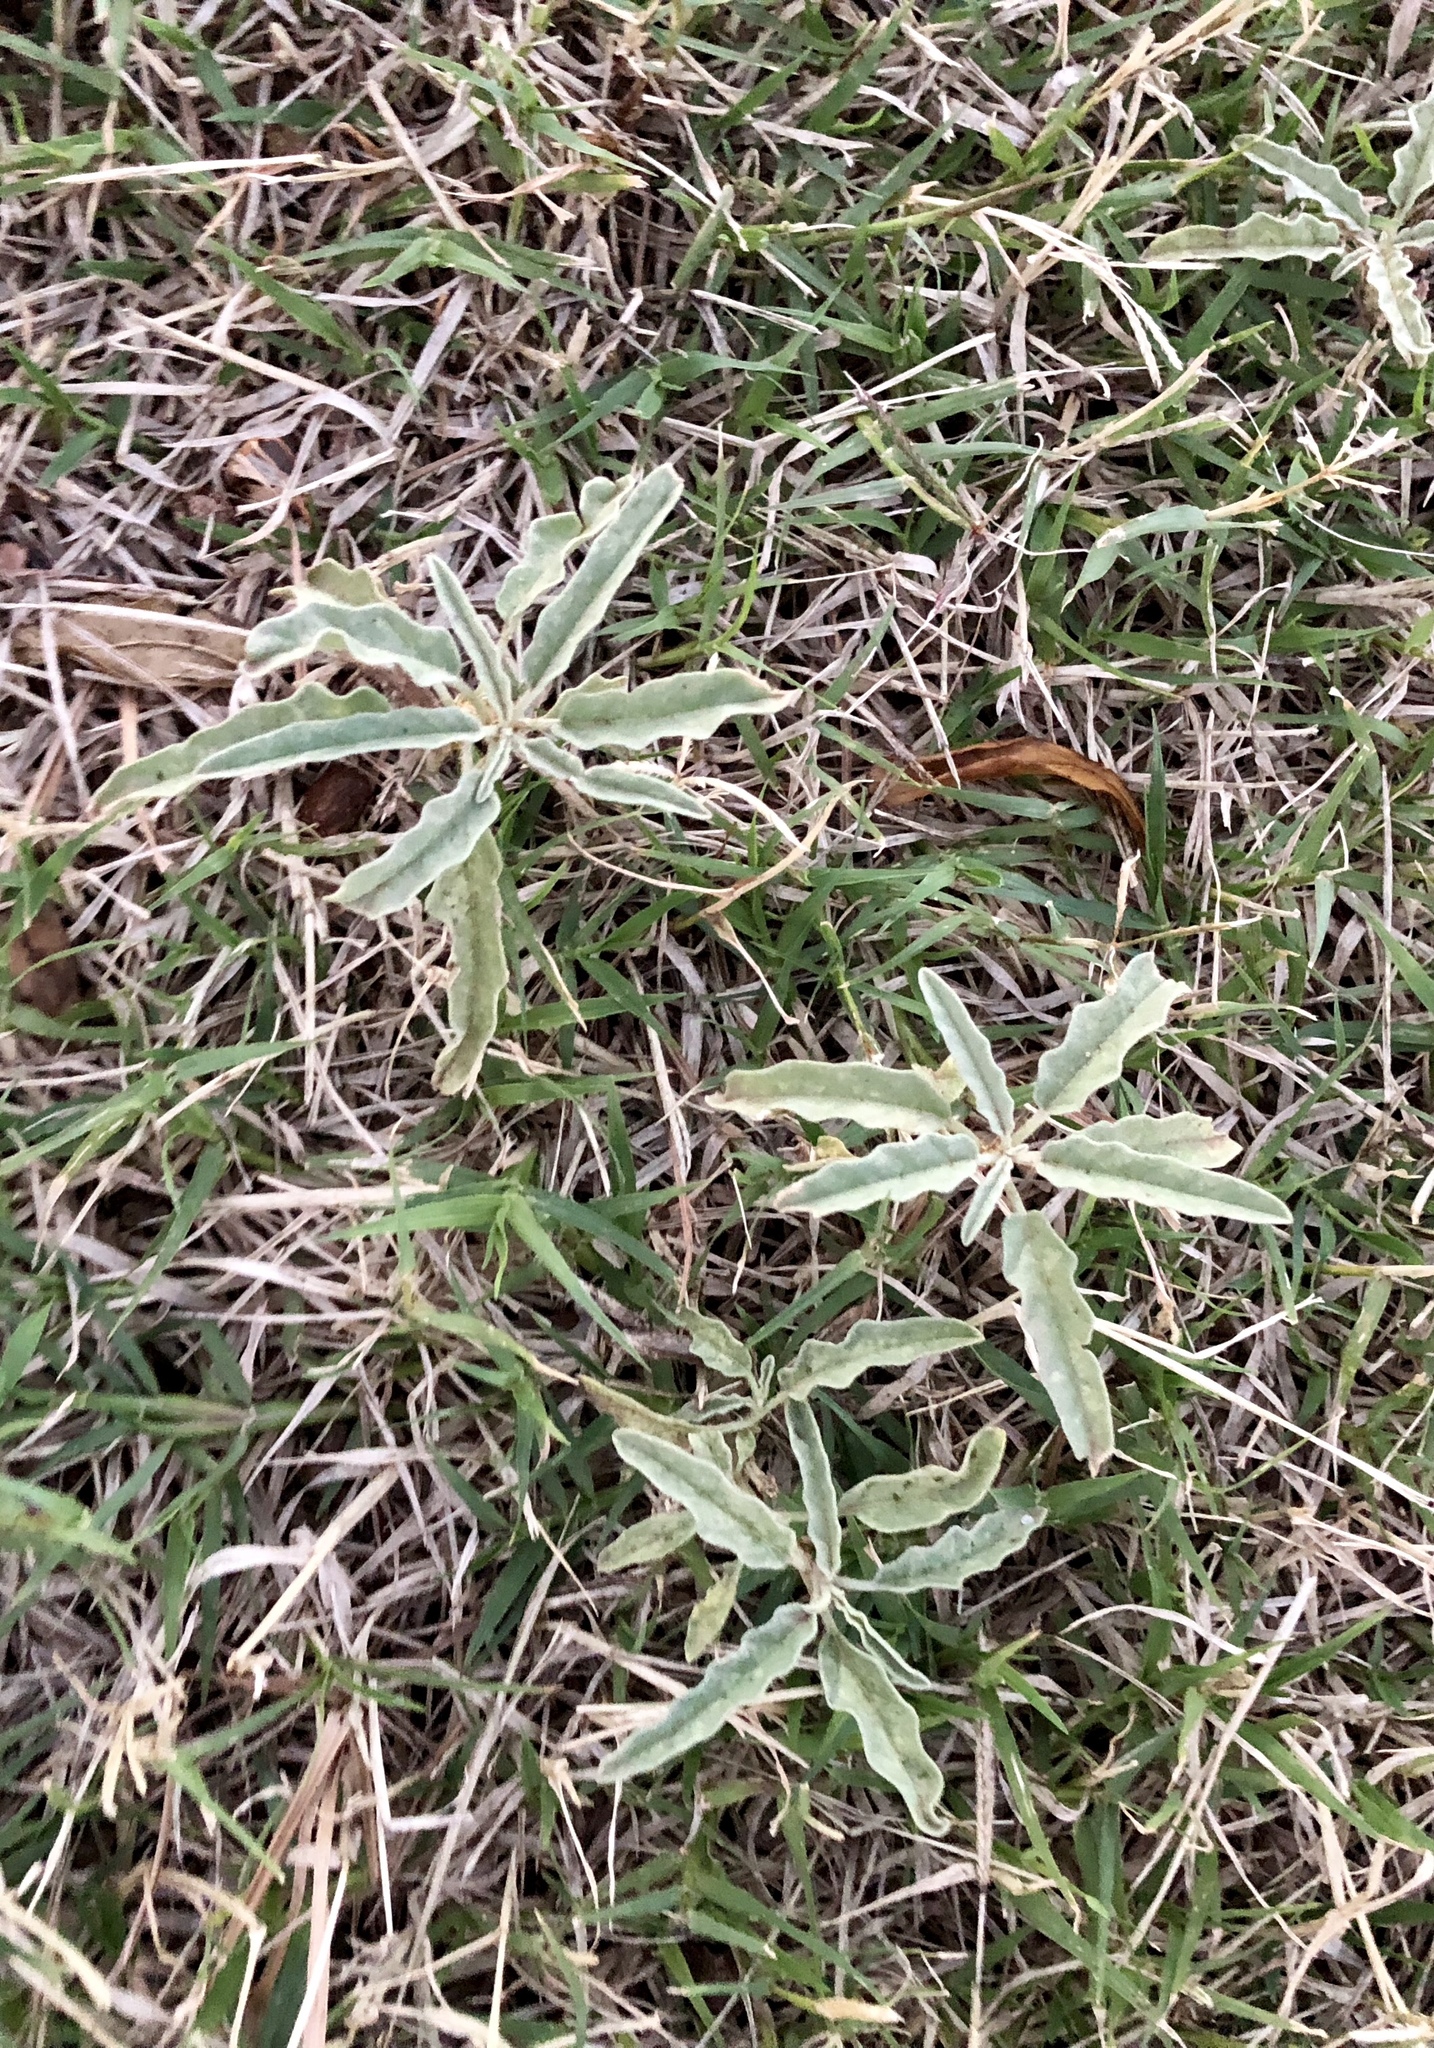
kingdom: Plantae
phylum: Tracheophyta
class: Magnoliopsida
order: Solanales
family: Solanaceae
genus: Solanum
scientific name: Solanum elaeagnifolium
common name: Silverleaf nightshade
